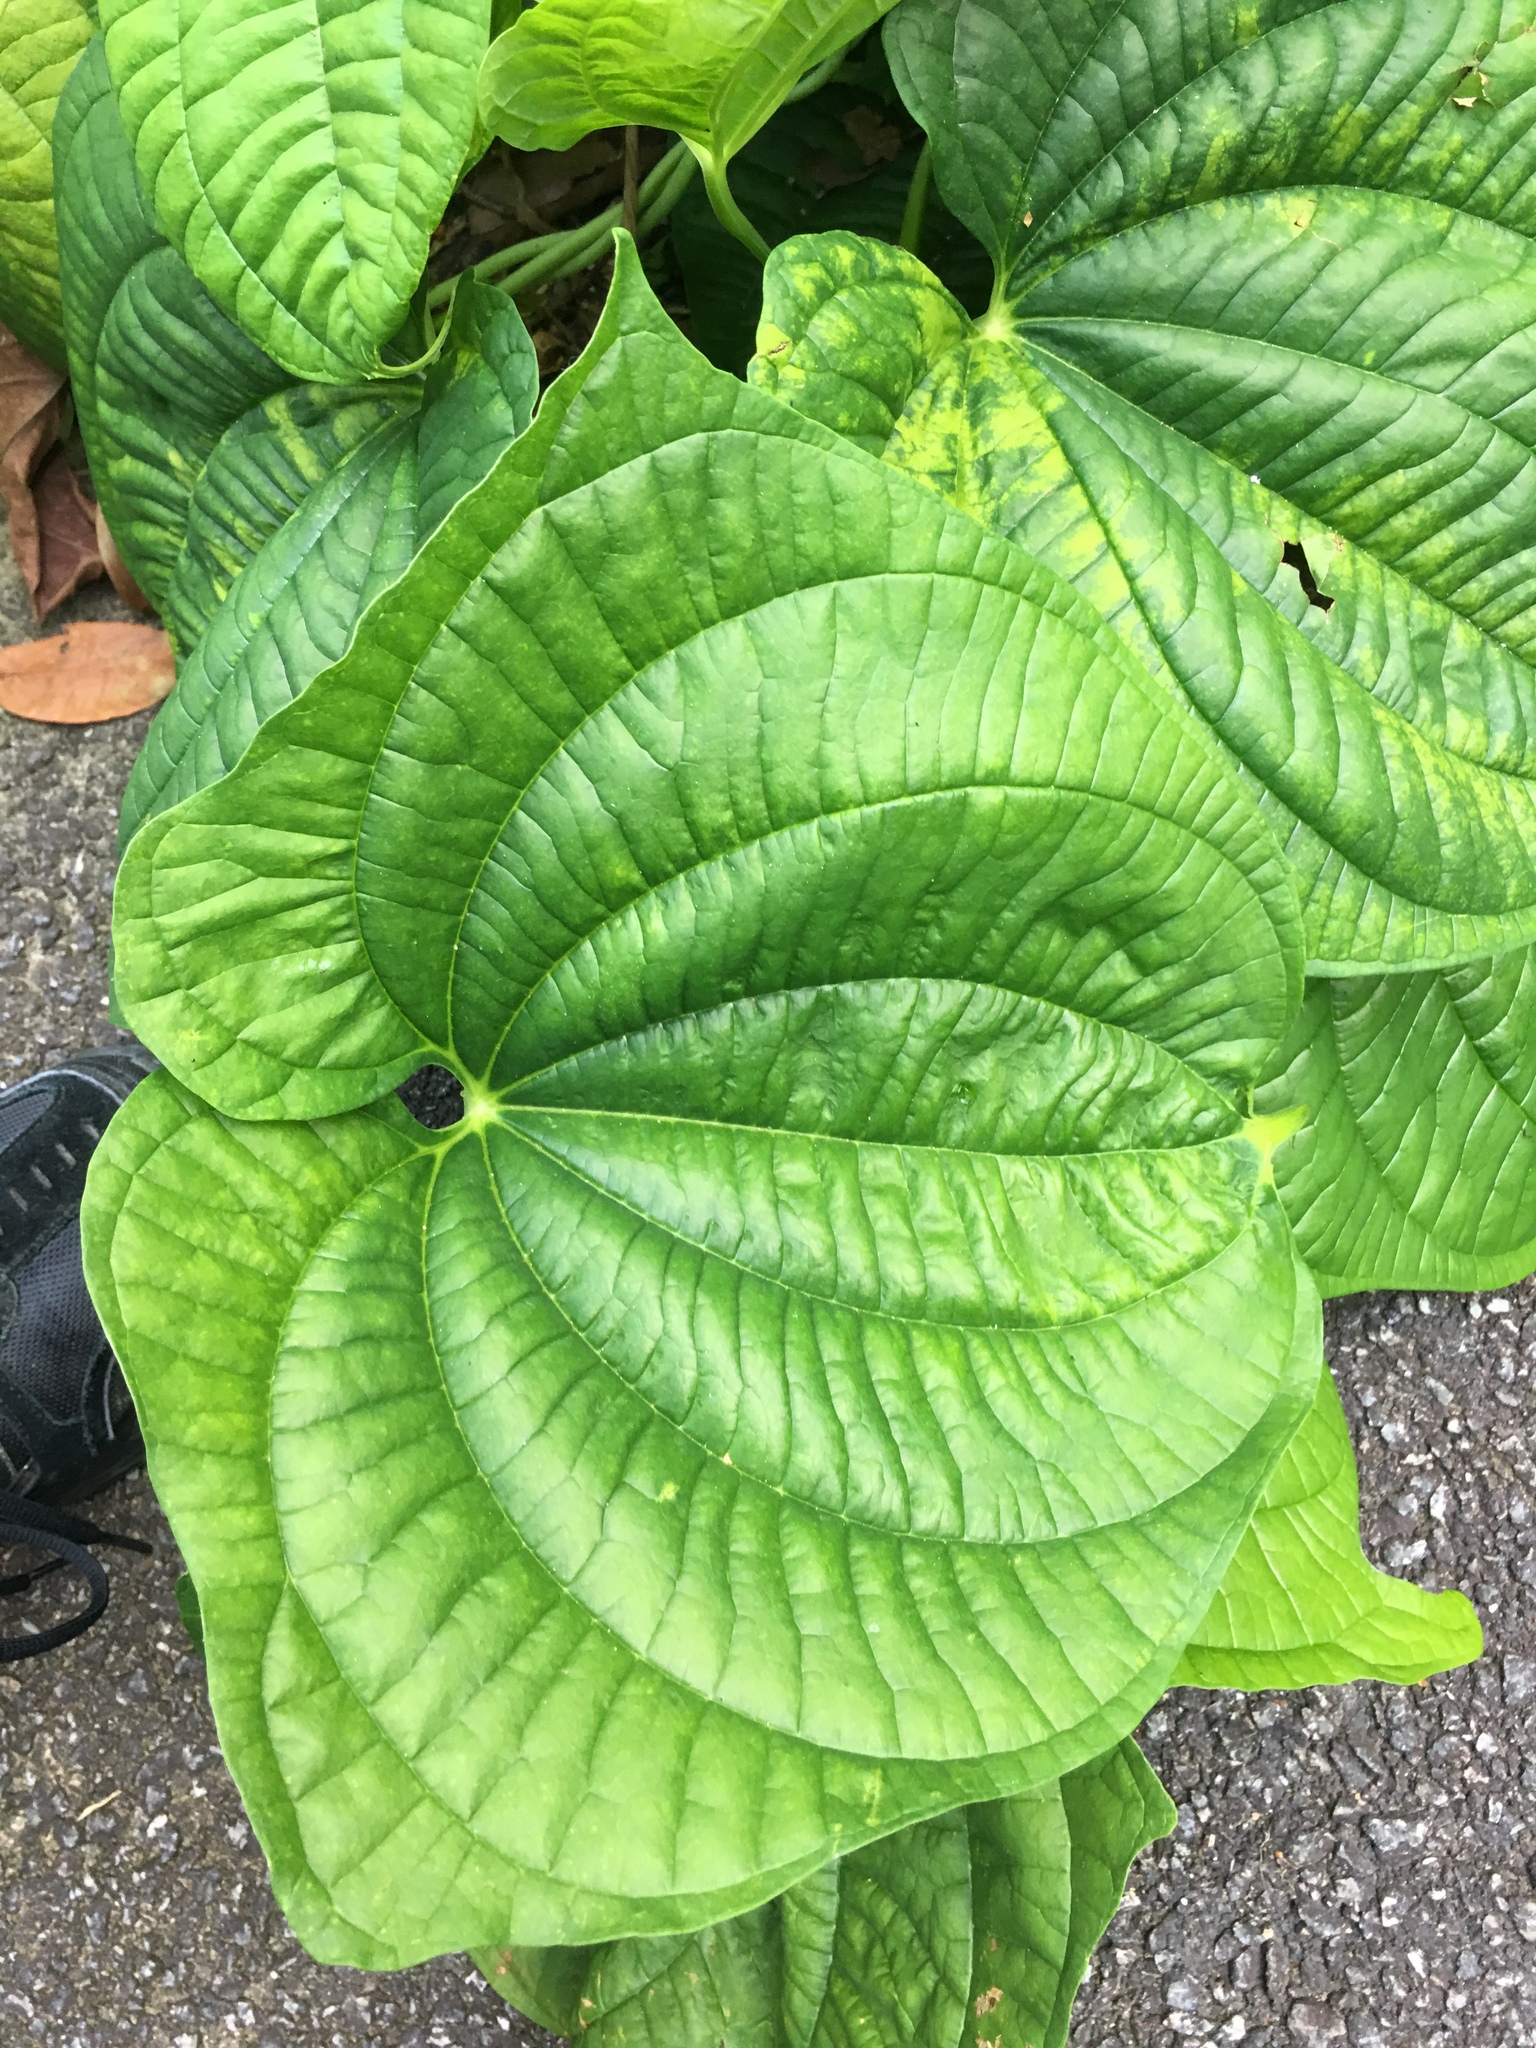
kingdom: Plantae
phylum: Tracheophyta
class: Liliopsida
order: Dioscoreales
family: Dioscoreaceae
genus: Dioscorea
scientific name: Dioscorea sansibarensis
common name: Zanzibar yam
